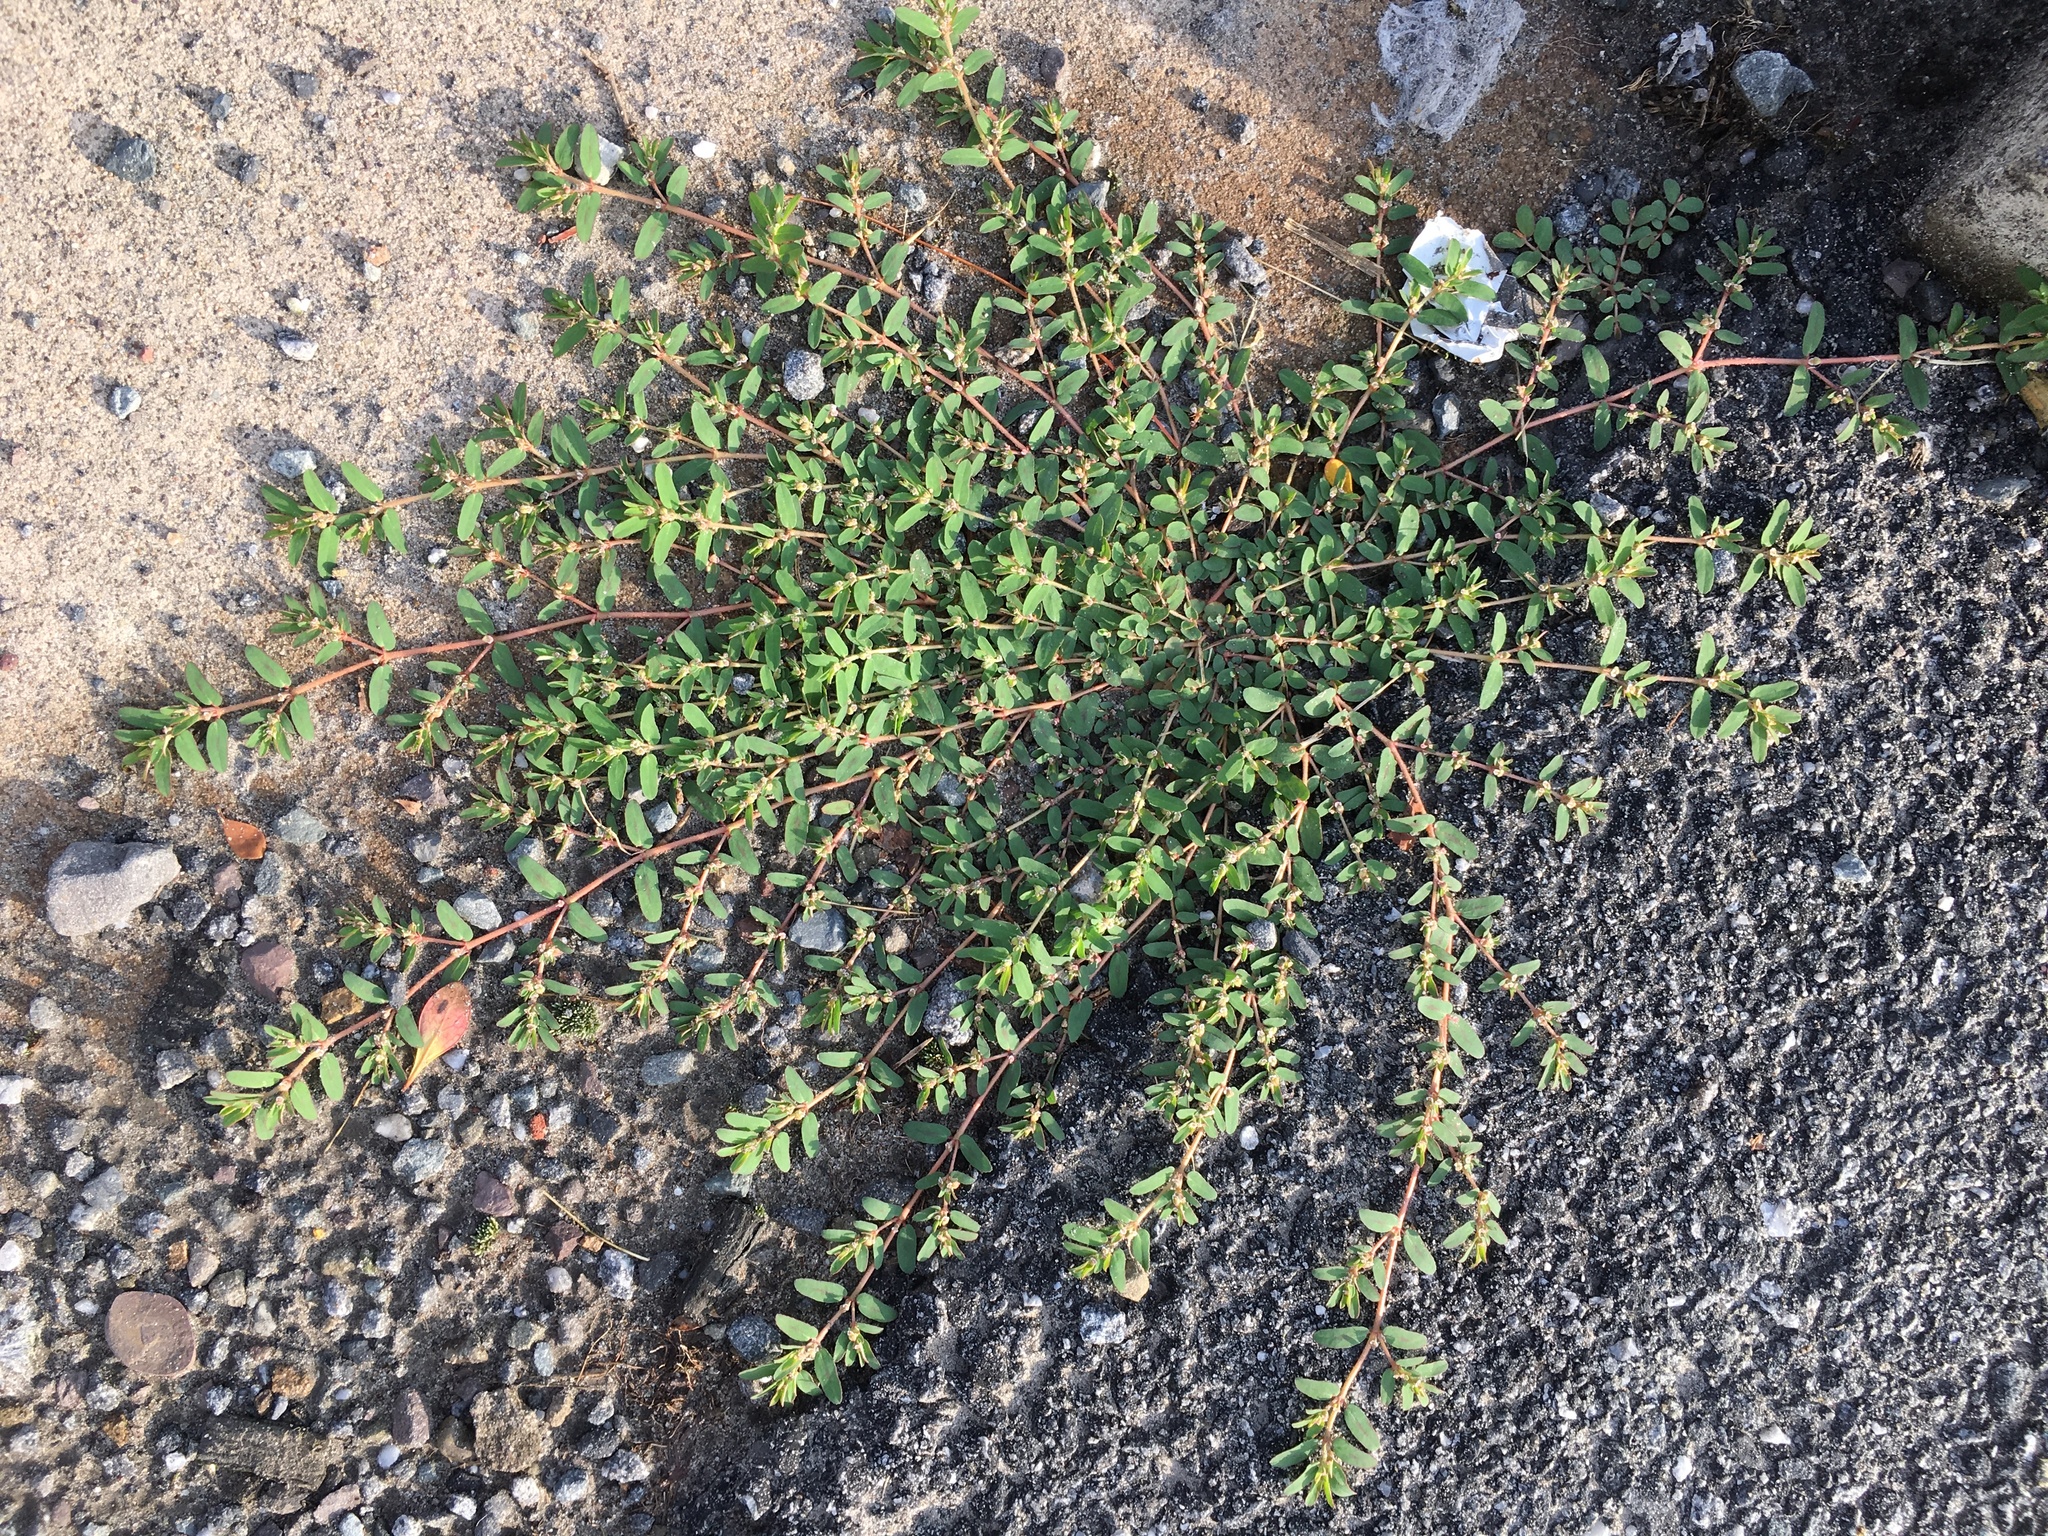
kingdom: Plantae
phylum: Tracheophyta
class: Magnoliopsida
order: Malpighiales
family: Euphorbiaceae
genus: Euphorbia
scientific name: Euphorbia maculata
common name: Spotted spurge
